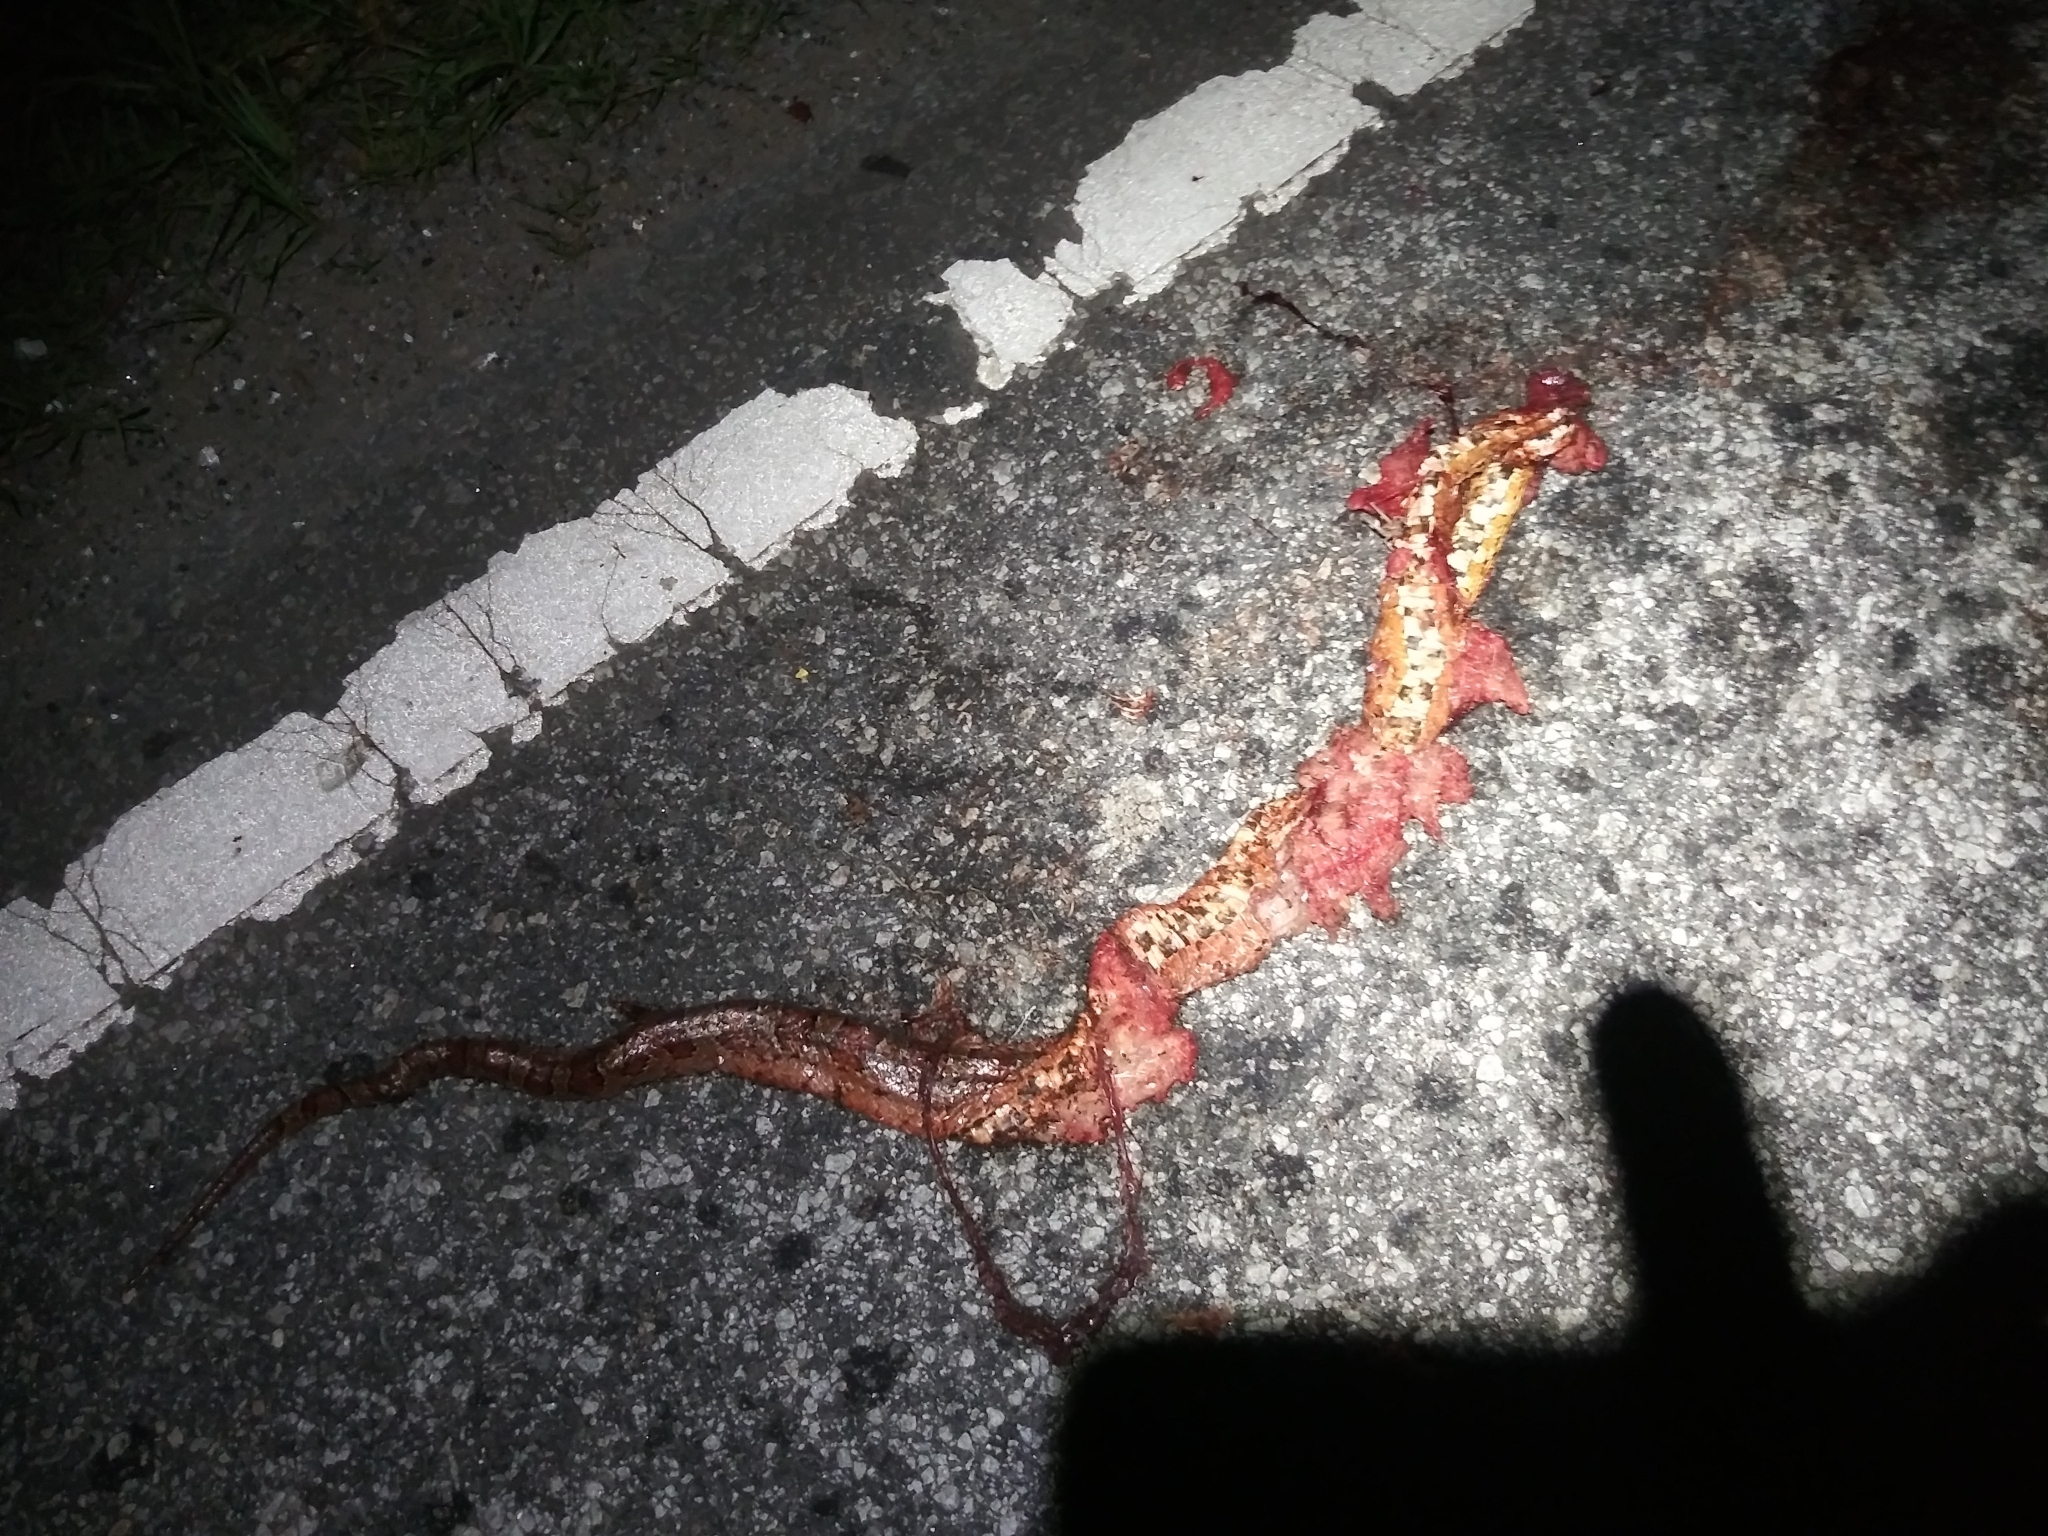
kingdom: Animalia
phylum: Chordata
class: Squamata
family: Colubridae
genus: Pantherophis
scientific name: Pantherophis guttatus
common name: Red cornsnake
